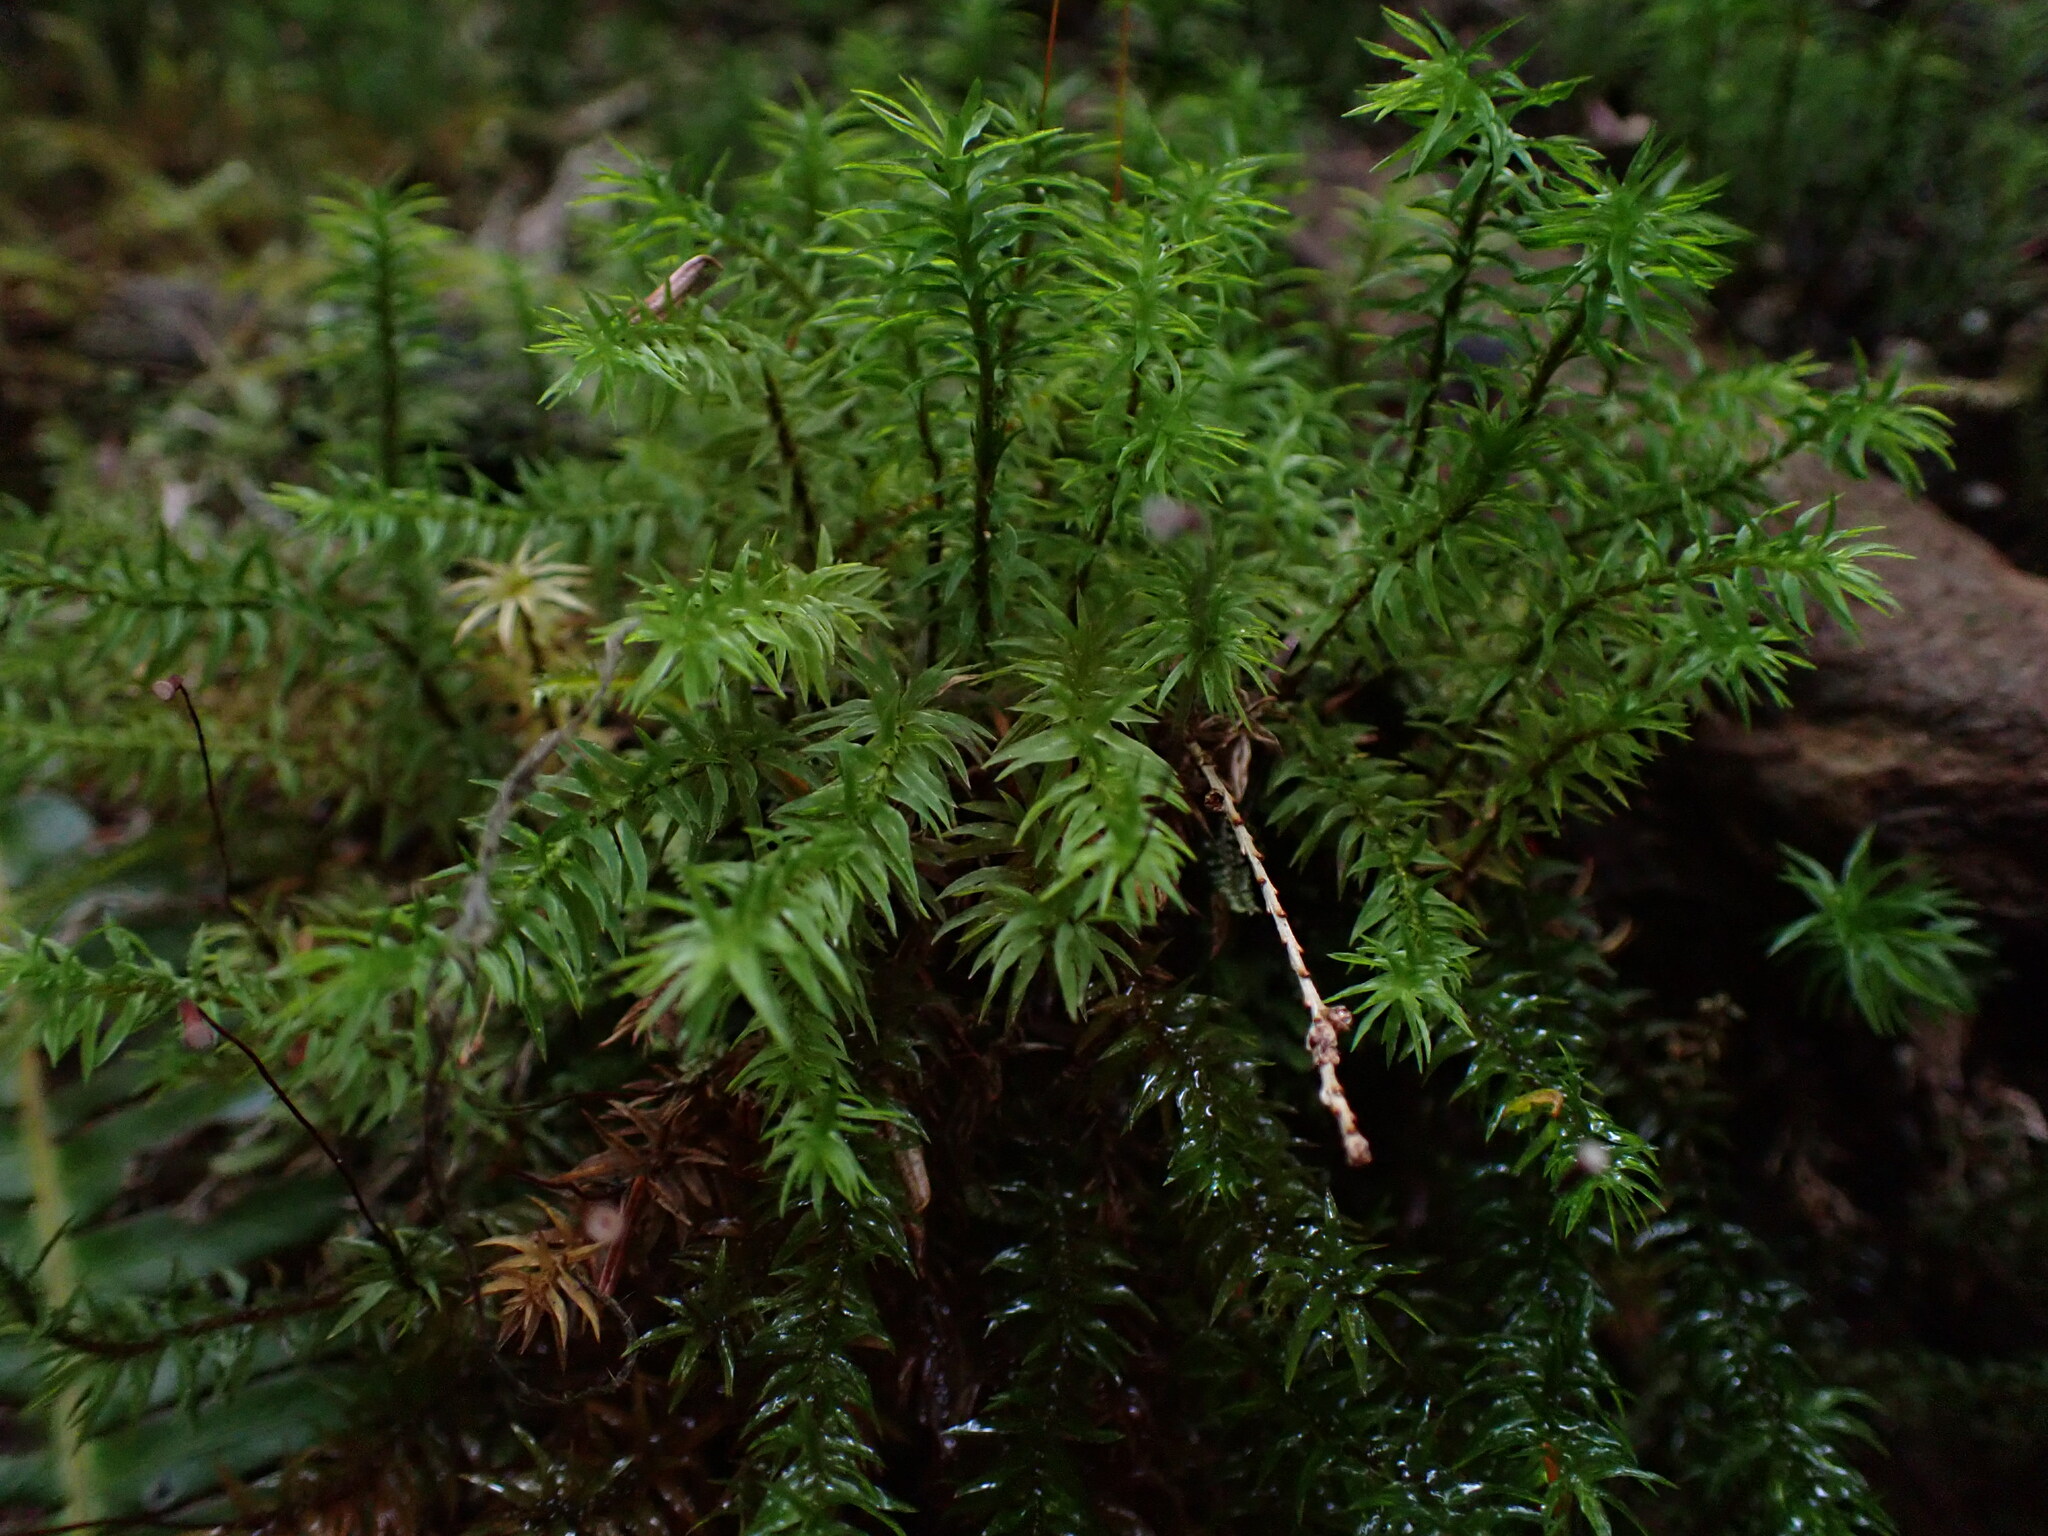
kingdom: Plantae
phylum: Bryophyta
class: Polytrichopsida
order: Polytrichales
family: Polytrichaceae
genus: Pogonatum
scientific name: Pogonatum contortum
